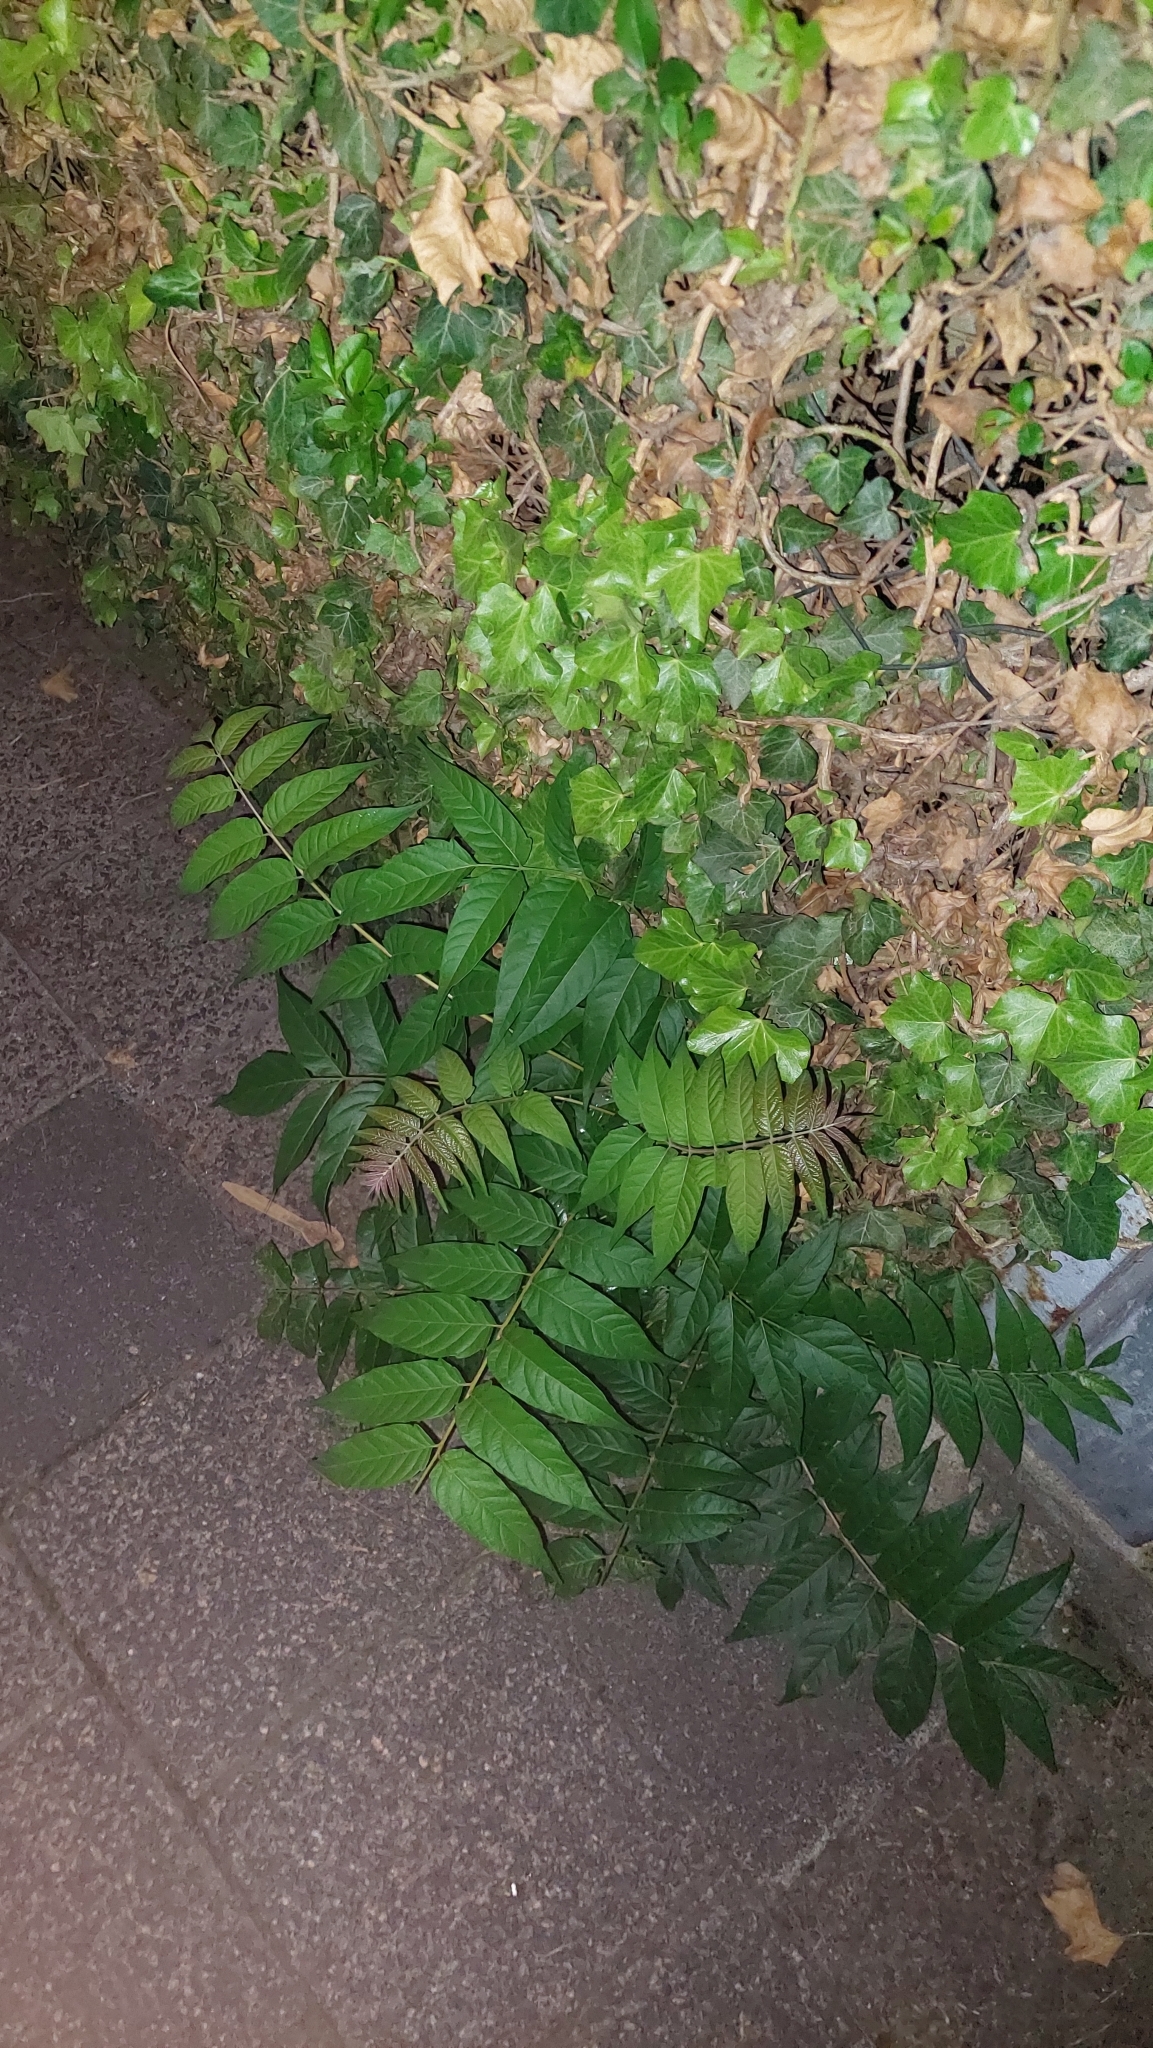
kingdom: Plantae
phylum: Tracheophyta
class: Magnoliopsida
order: Sapindales
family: Simaroubaceae
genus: Ailanthus
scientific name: Ailanthus altissima
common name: Tree-of-heaven
